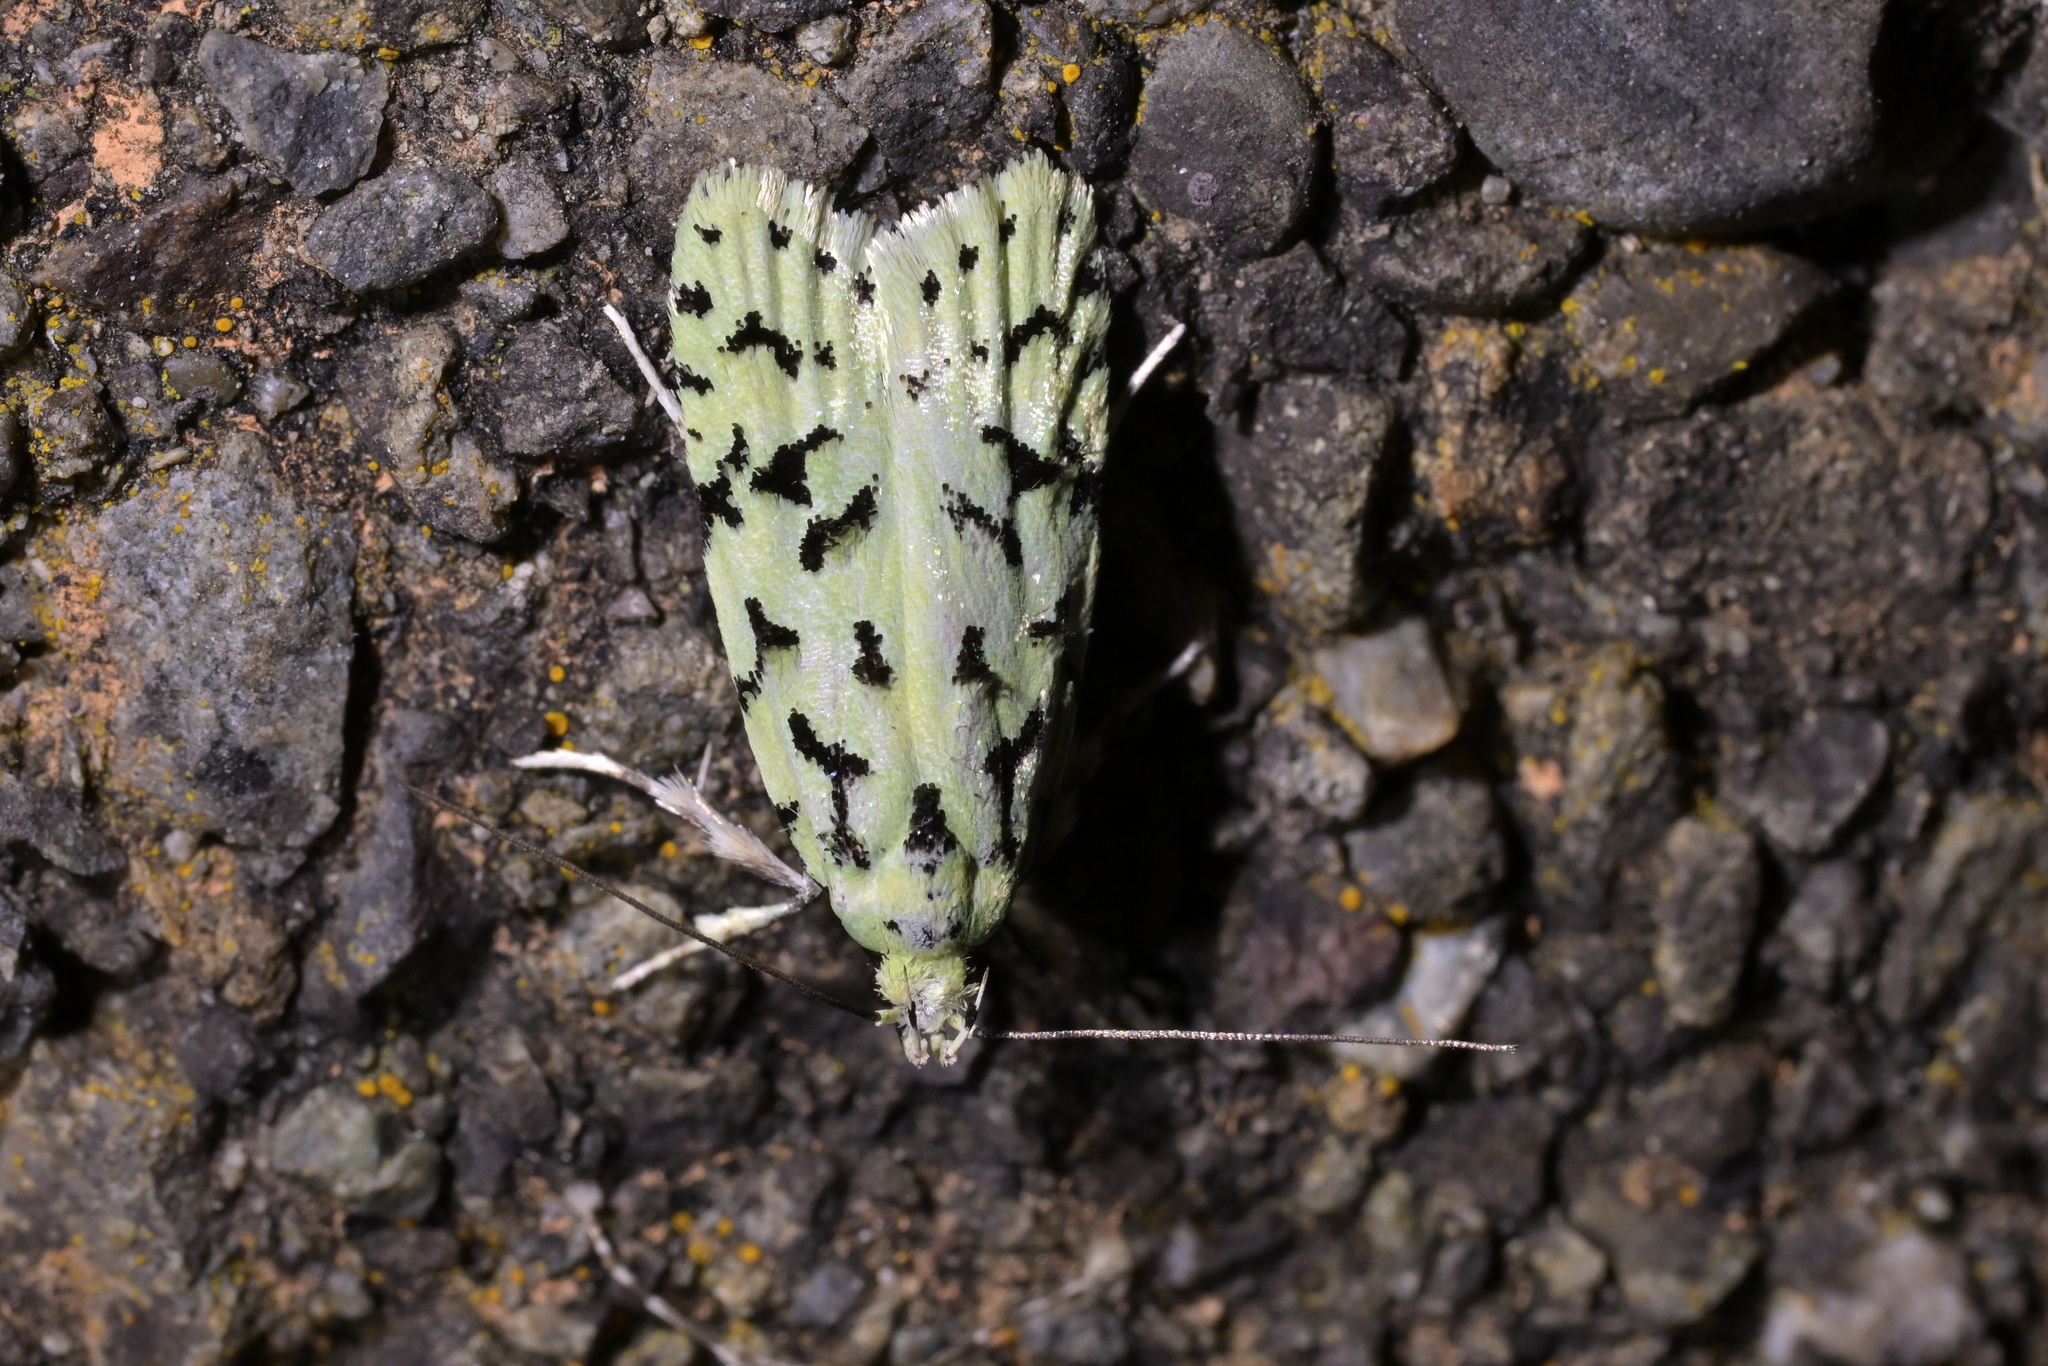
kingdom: Animalia
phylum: Arthropoda
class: Insecta
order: Lepidoptera
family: Oecophoridae
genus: Izatha
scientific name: Izatha peroneanella
